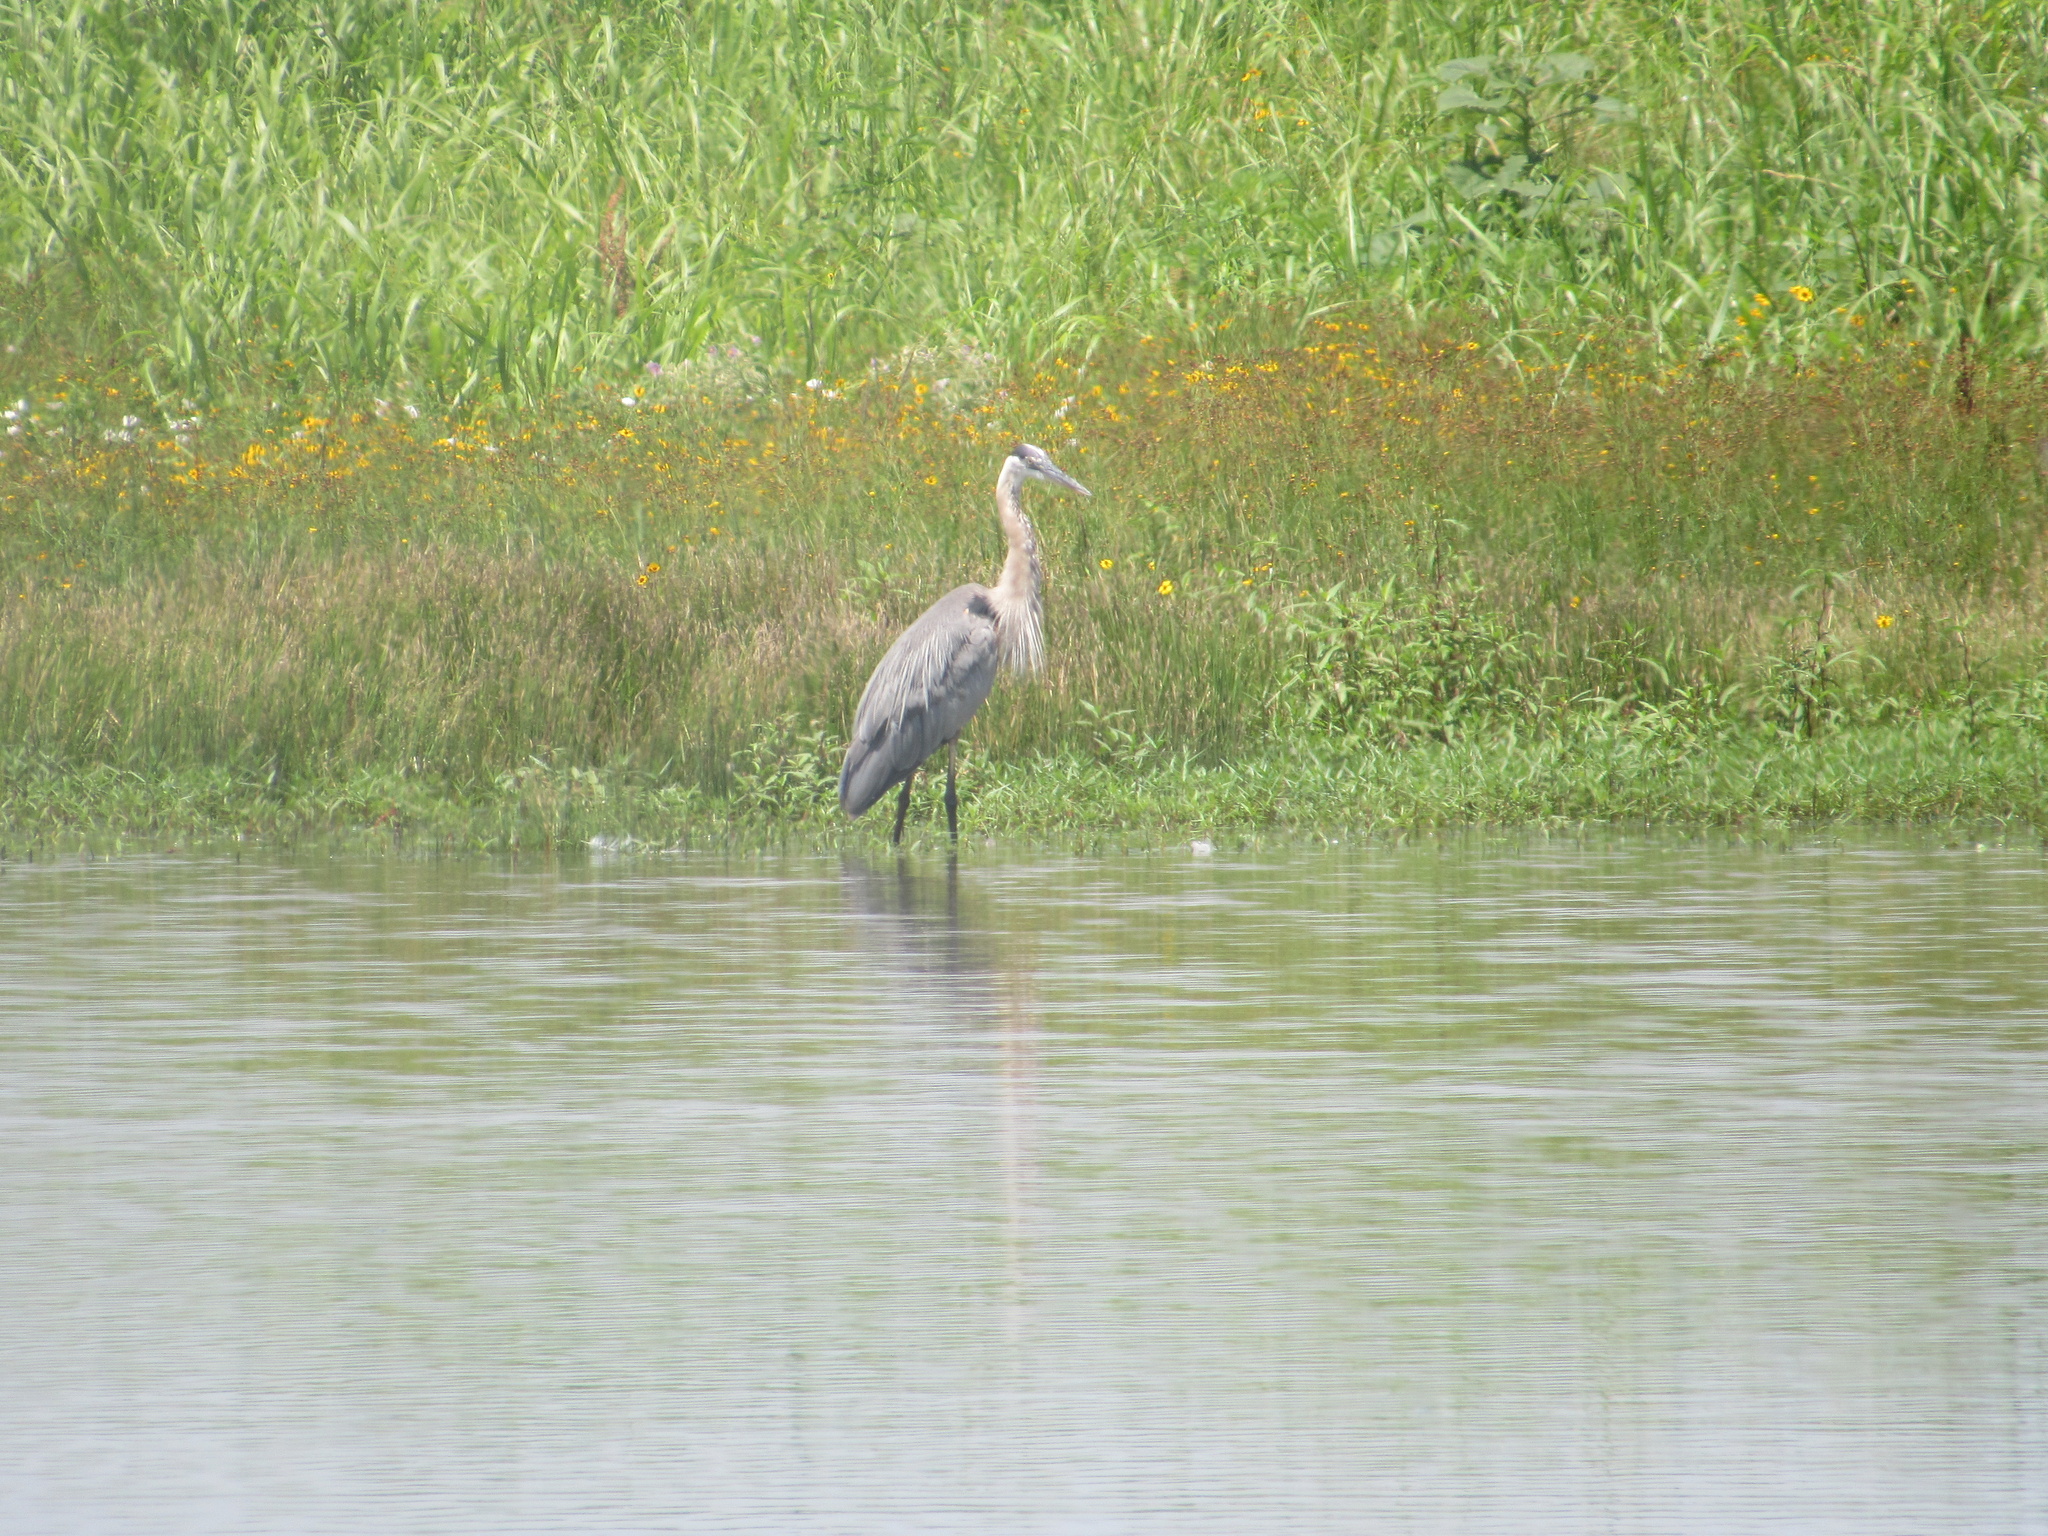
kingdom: Animalia
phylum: Chordata
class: Aves
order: Pelecaniformes
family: Ardeidae
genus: Ardea
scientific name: Ardea herodias
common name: Great blue heron
